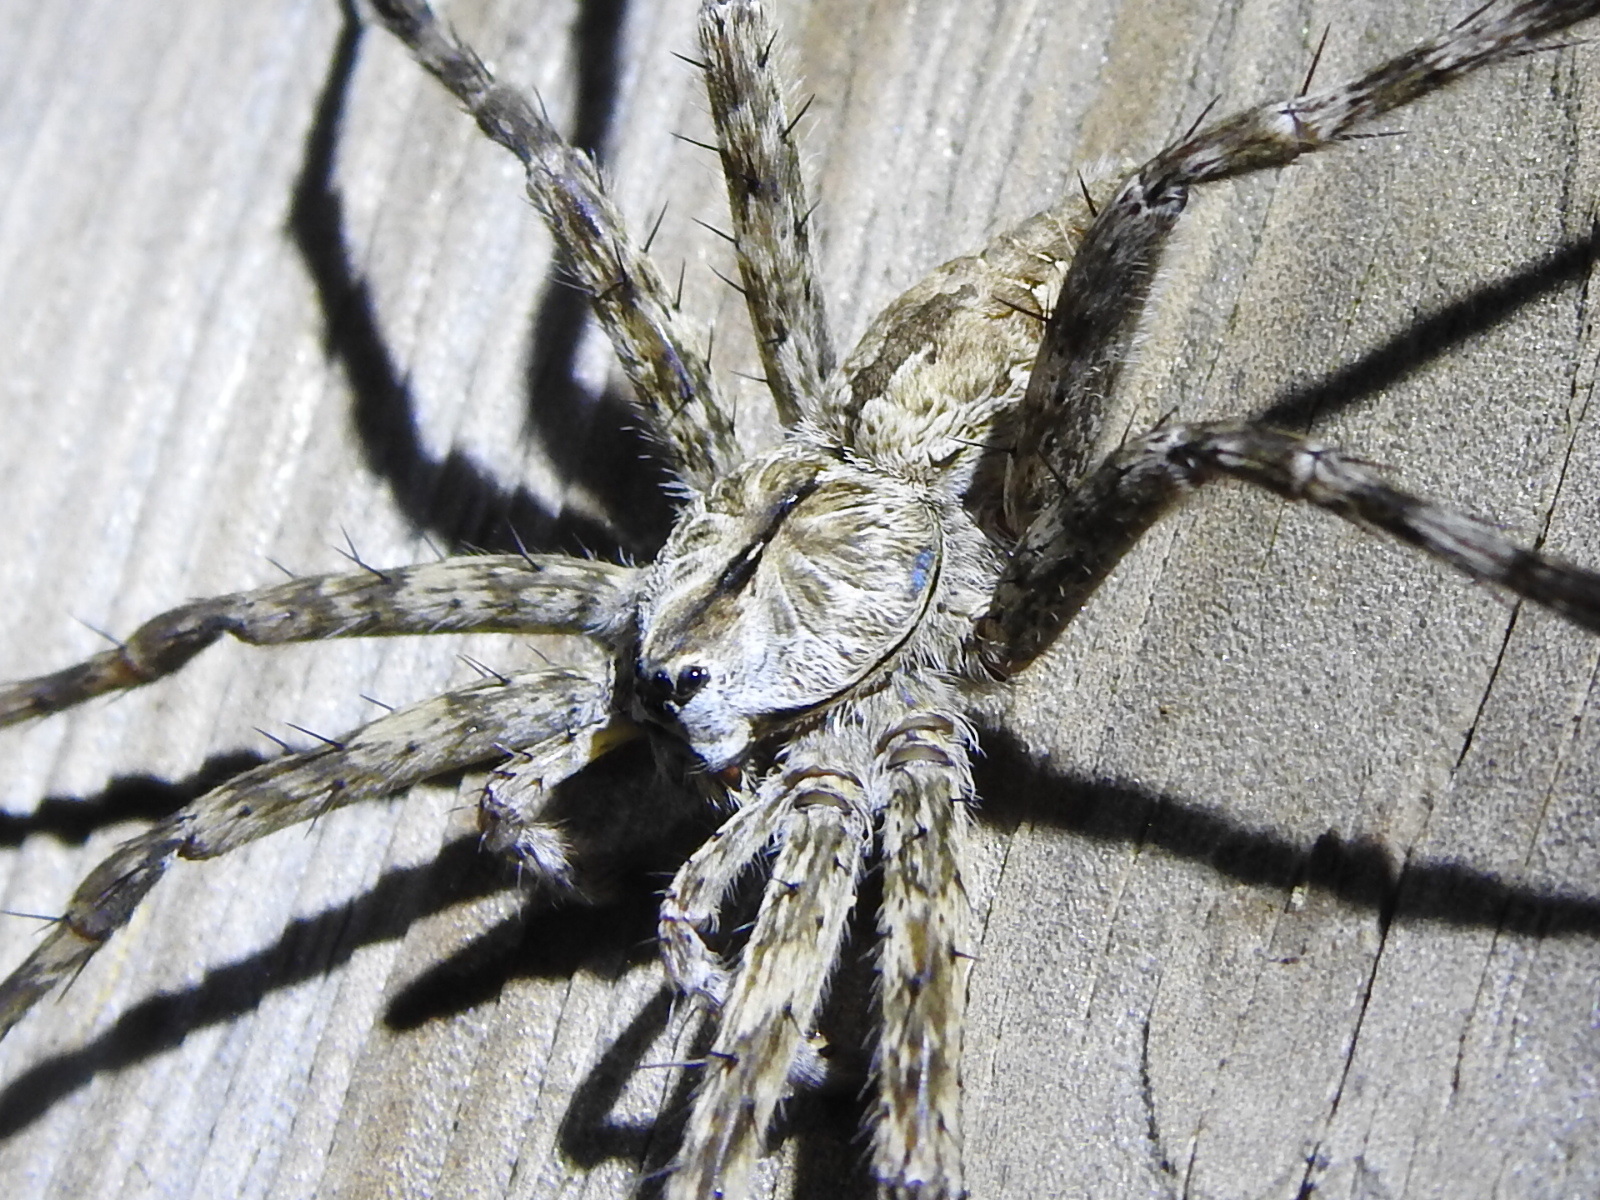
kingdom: Animalia
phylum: Arthropoda
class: Arachnida
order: Araneae
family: Pisauridae
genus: Dolomedes
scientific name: Dolomedes albineus
